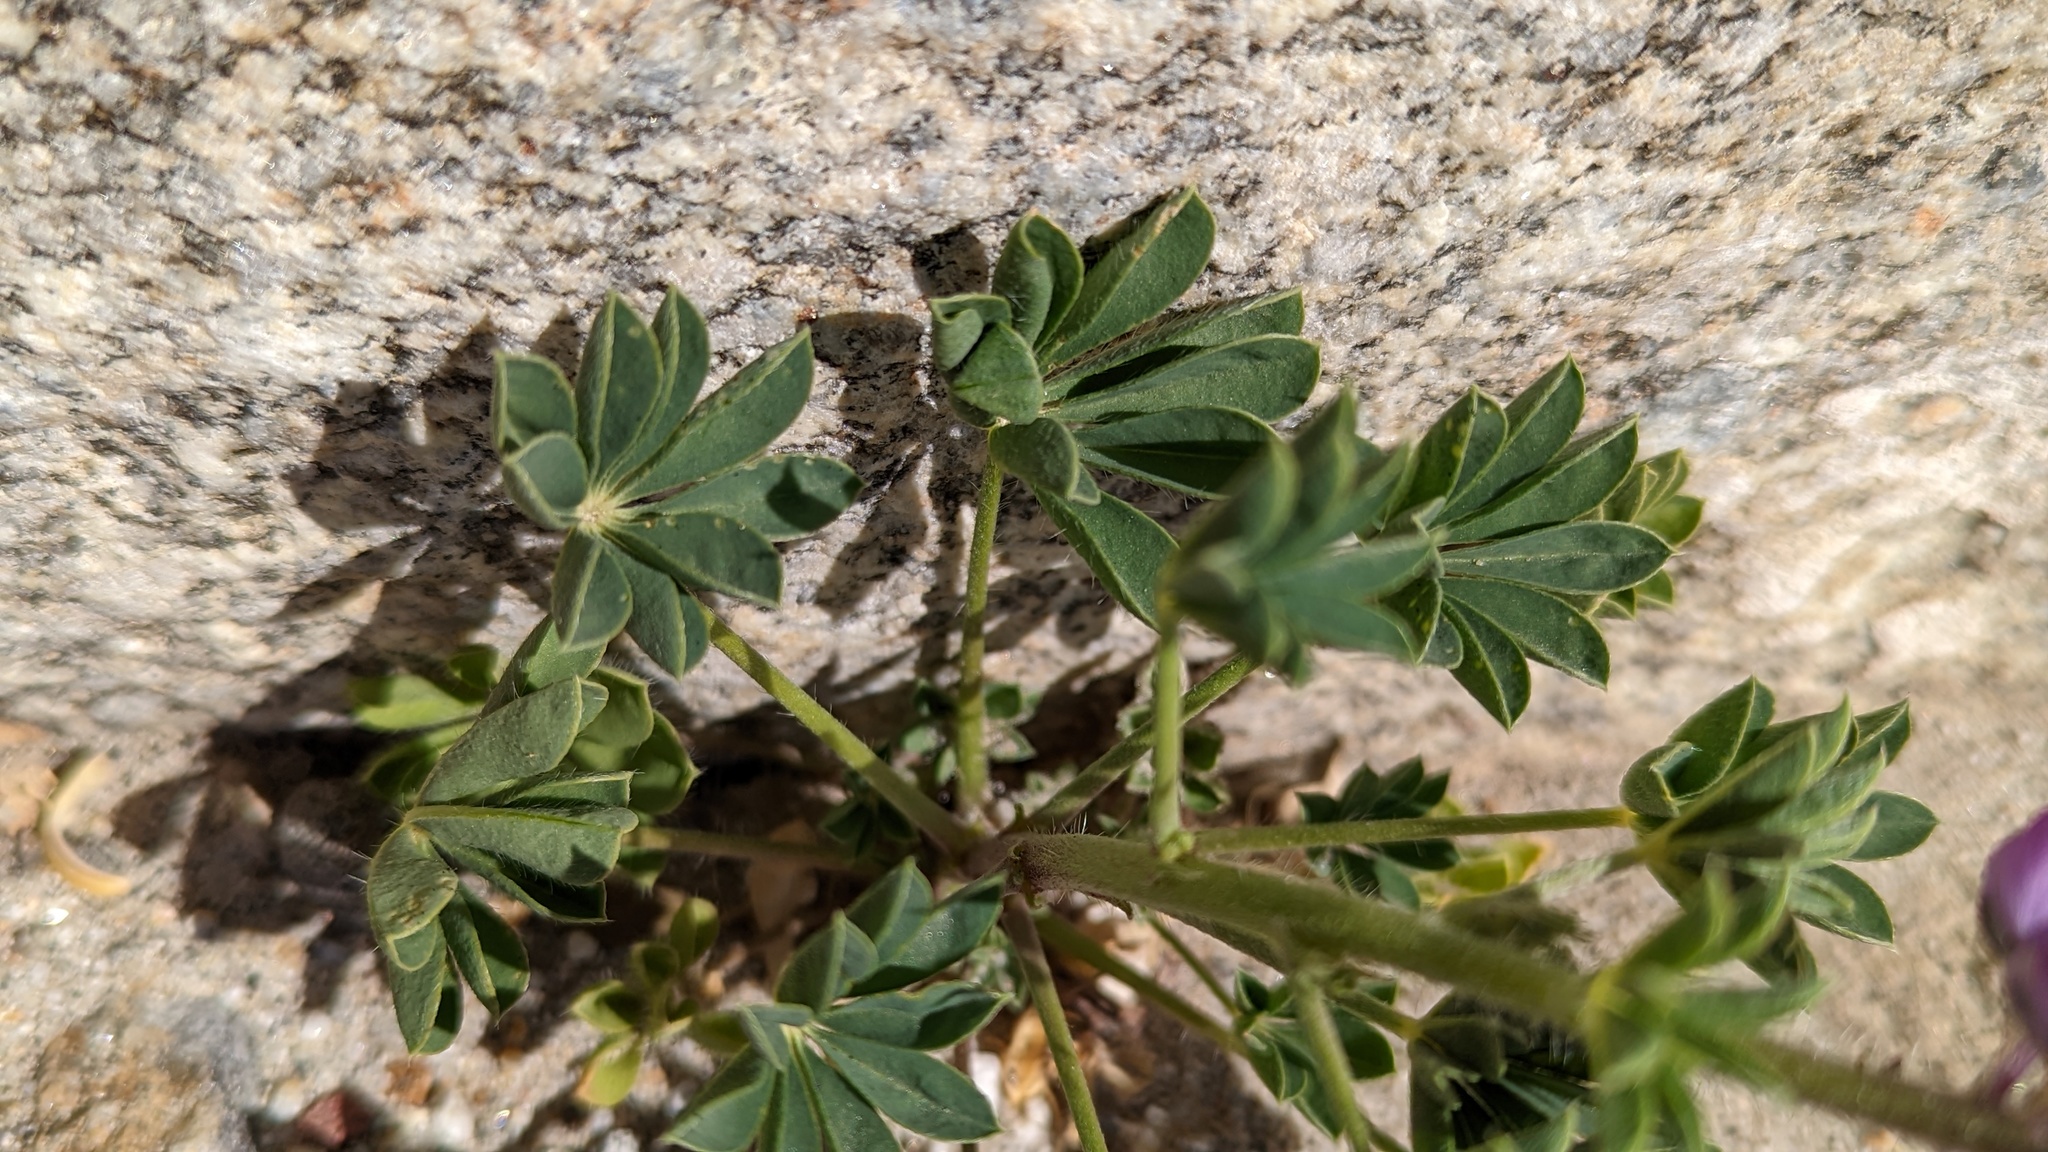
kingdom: Plantae
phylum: Tracheophyta
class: Magnoliopsida
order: Fabales
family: Fabaceae
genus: Lupinus
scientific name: Lupinus arizonicus
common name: Arizona lupine
